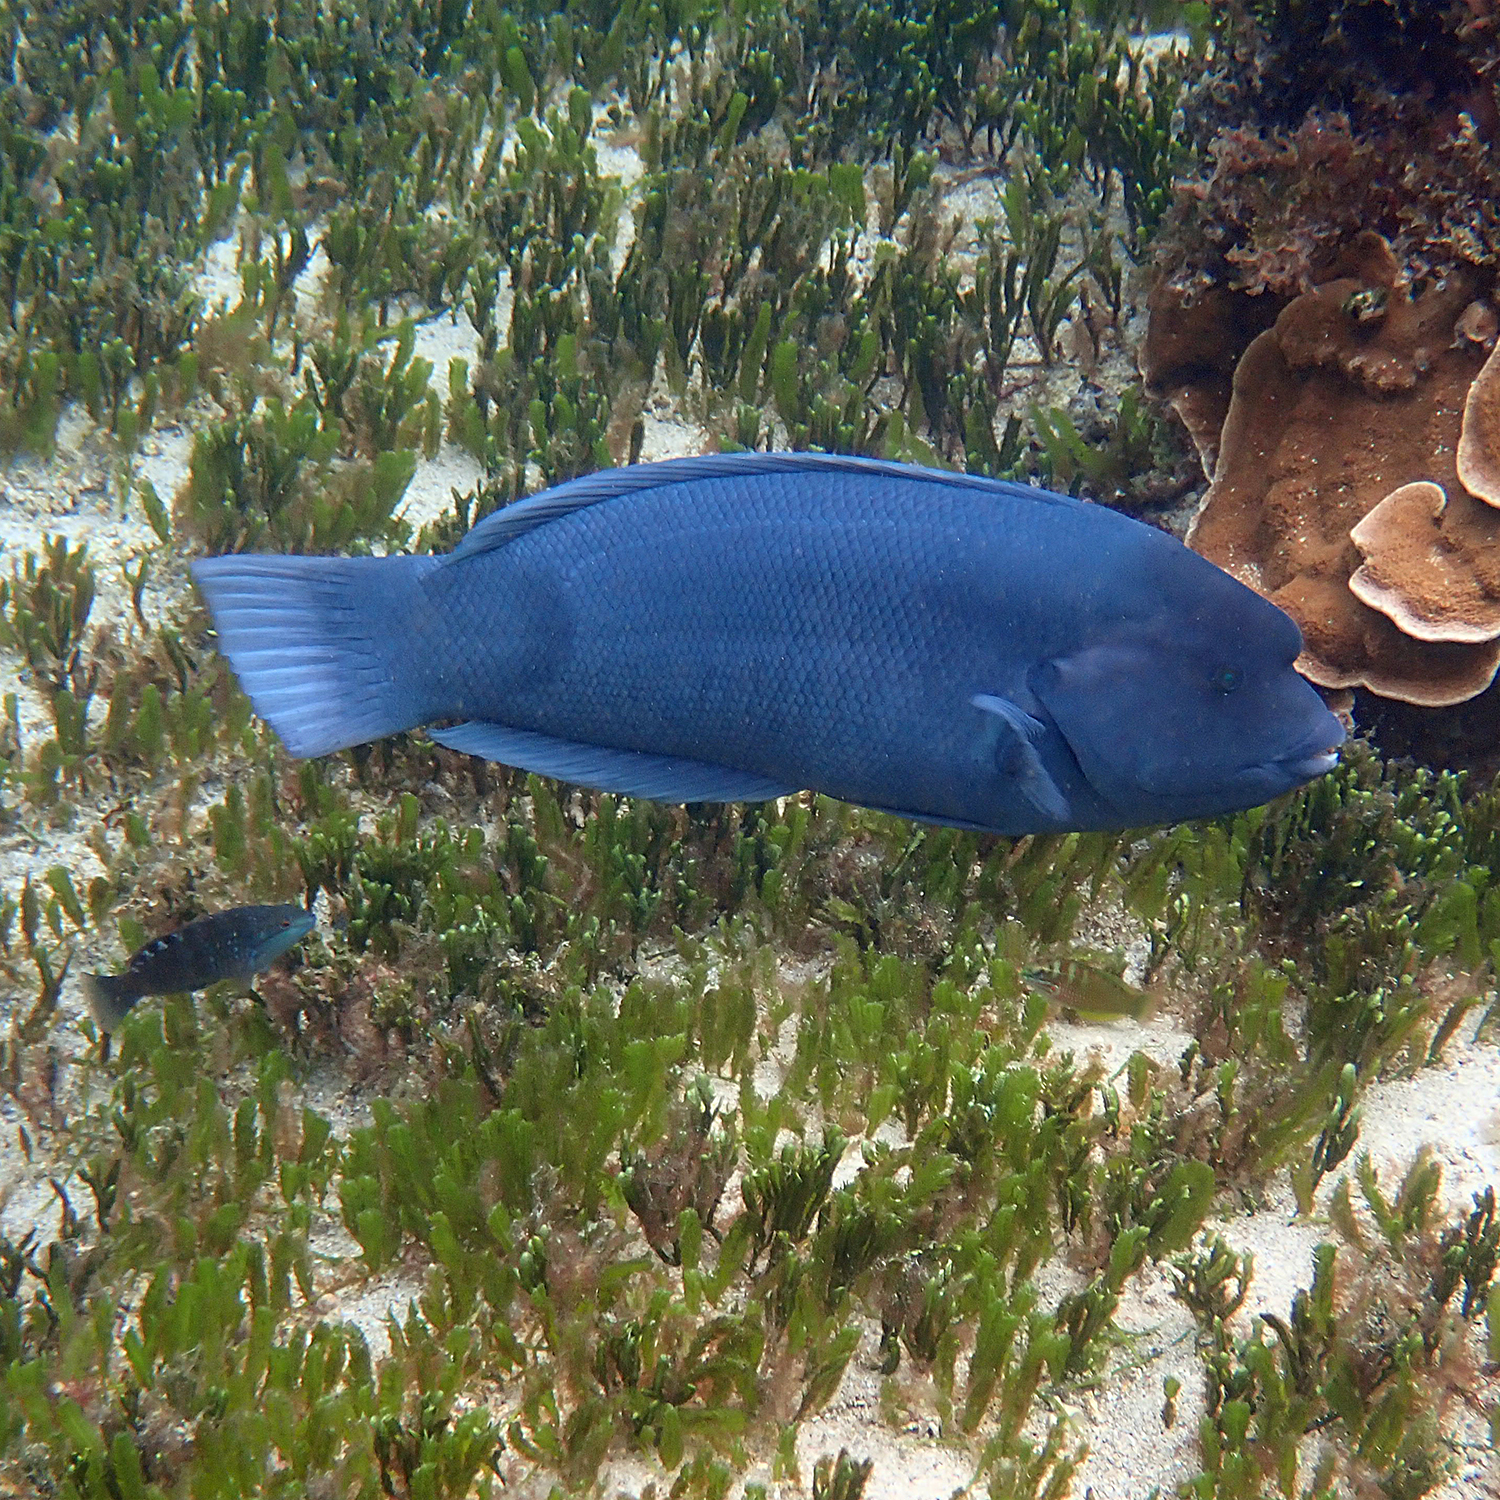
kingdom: Animalia
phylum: Chordata
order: Perciformes
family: Labridae
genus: Coris
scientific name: Coris bulbifrons
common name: Doubleheader
